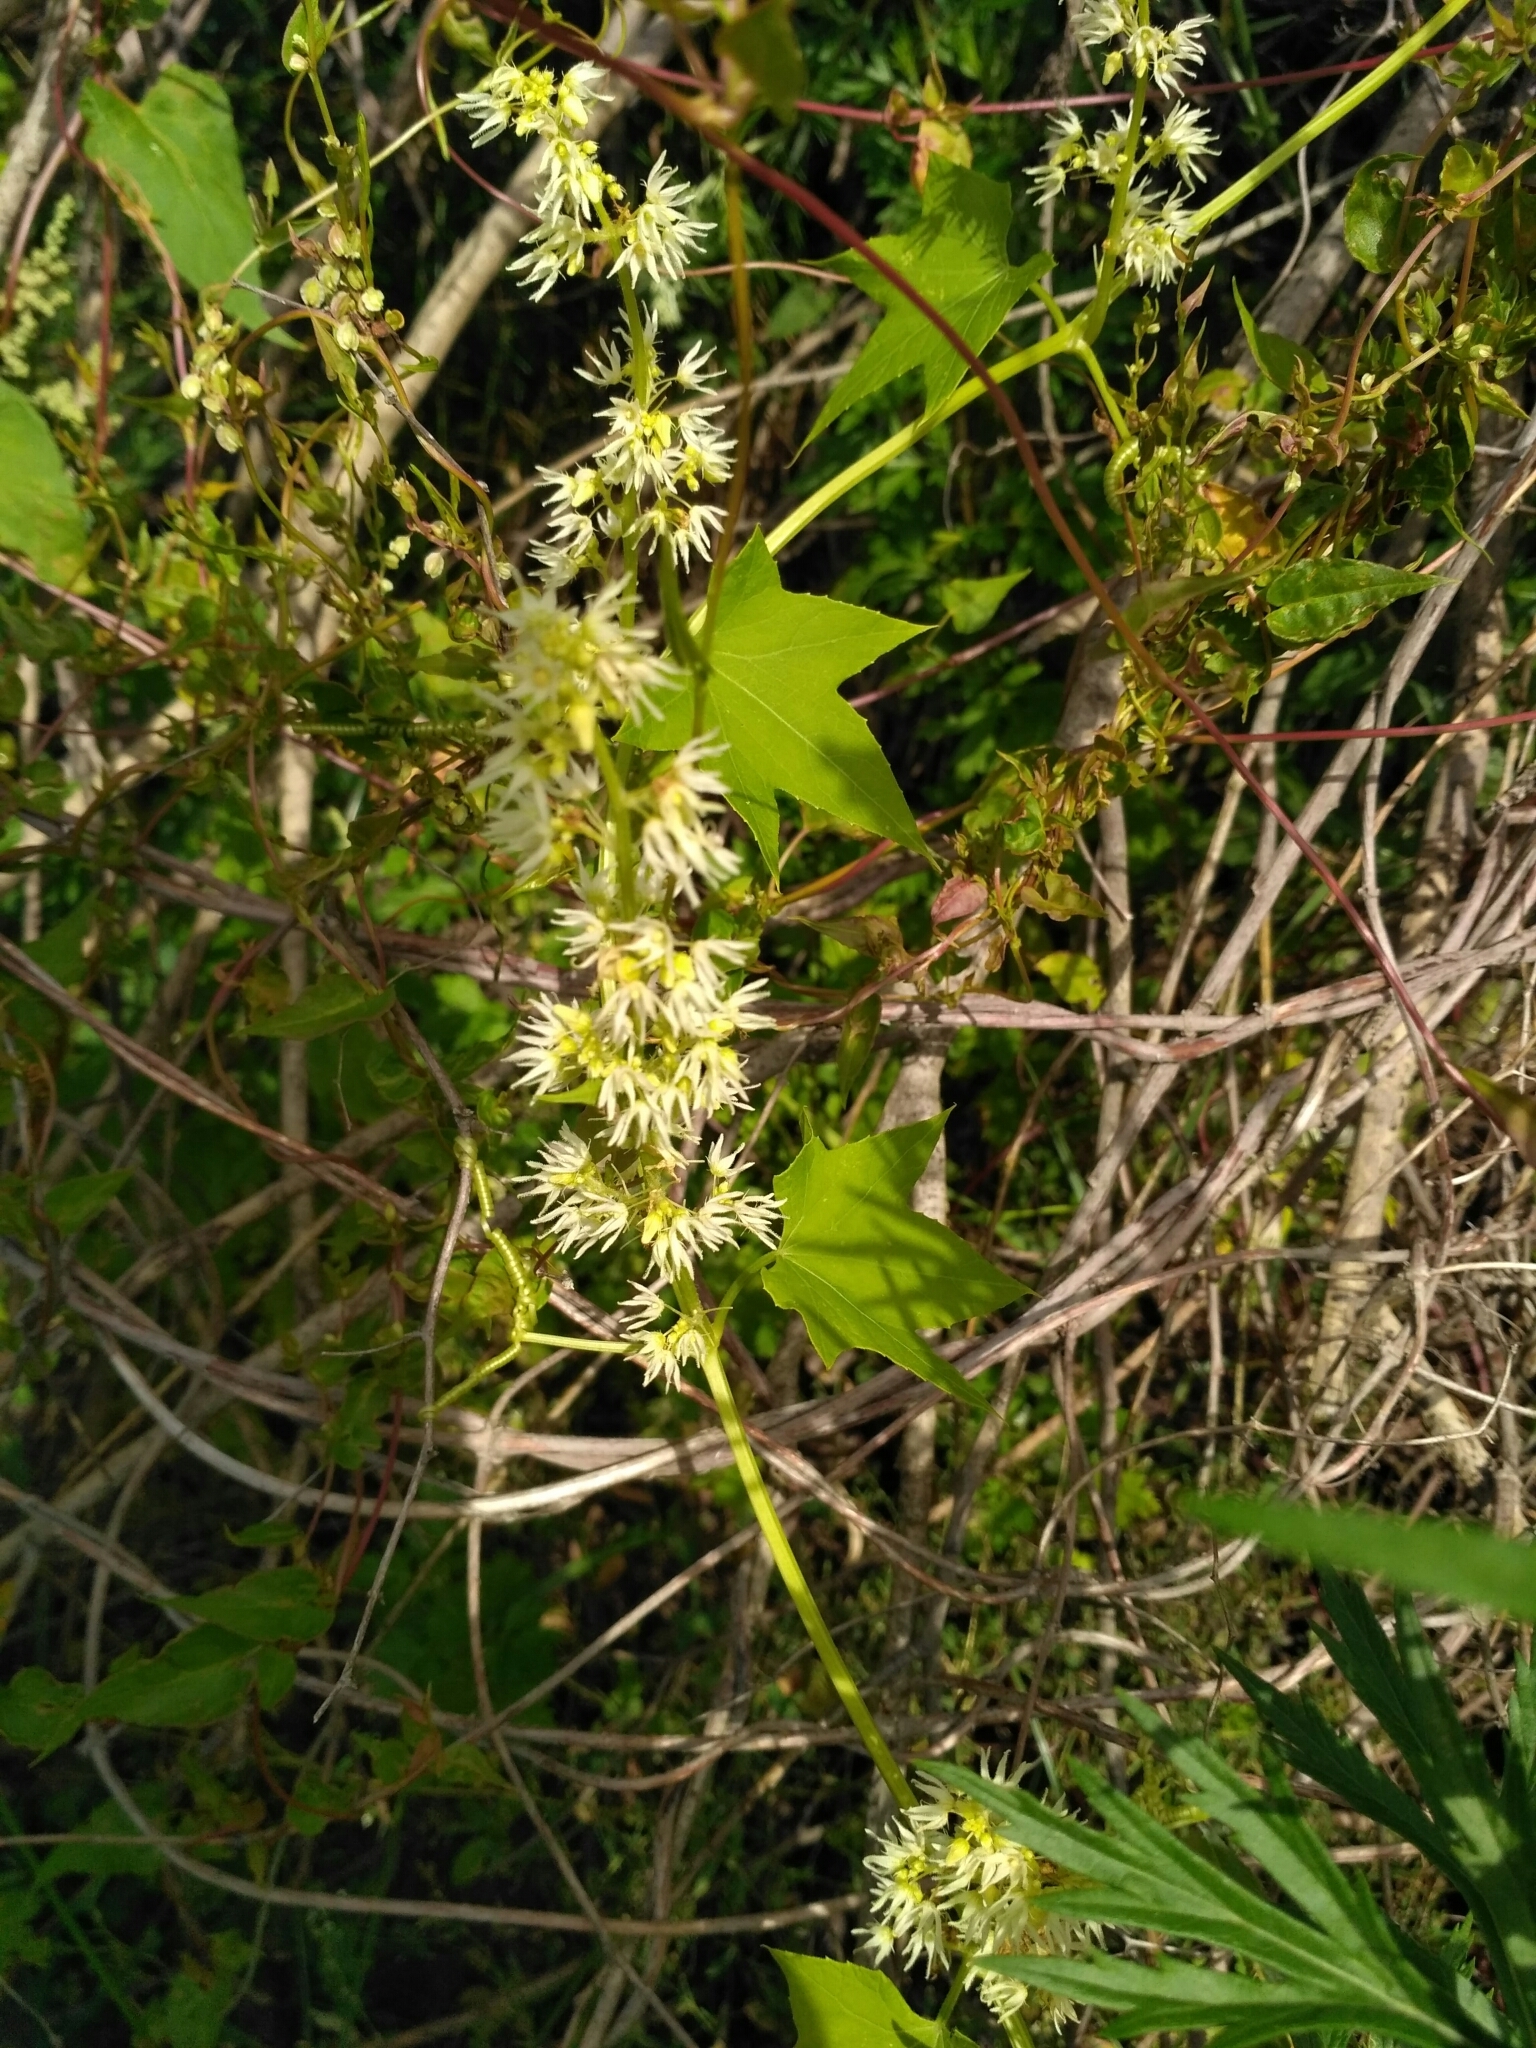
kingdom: Plantae
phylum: Tracheophyta
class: Magnoliopsida
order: Cucurbitales
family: Cucurbitaceae
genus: Echinocystis
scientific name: Echinocystis lobata
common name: Wild cucumber
